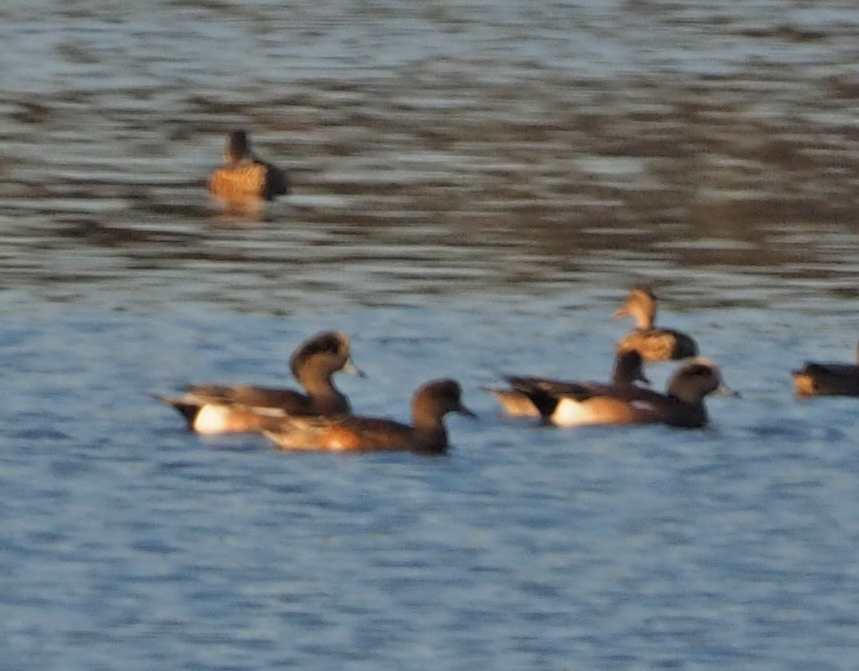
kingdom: Animalia
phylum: Chordata
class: Aves
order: Anseriformes
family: Anatidae
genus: Mareca
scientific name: Mareca americana
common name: American wigeon
